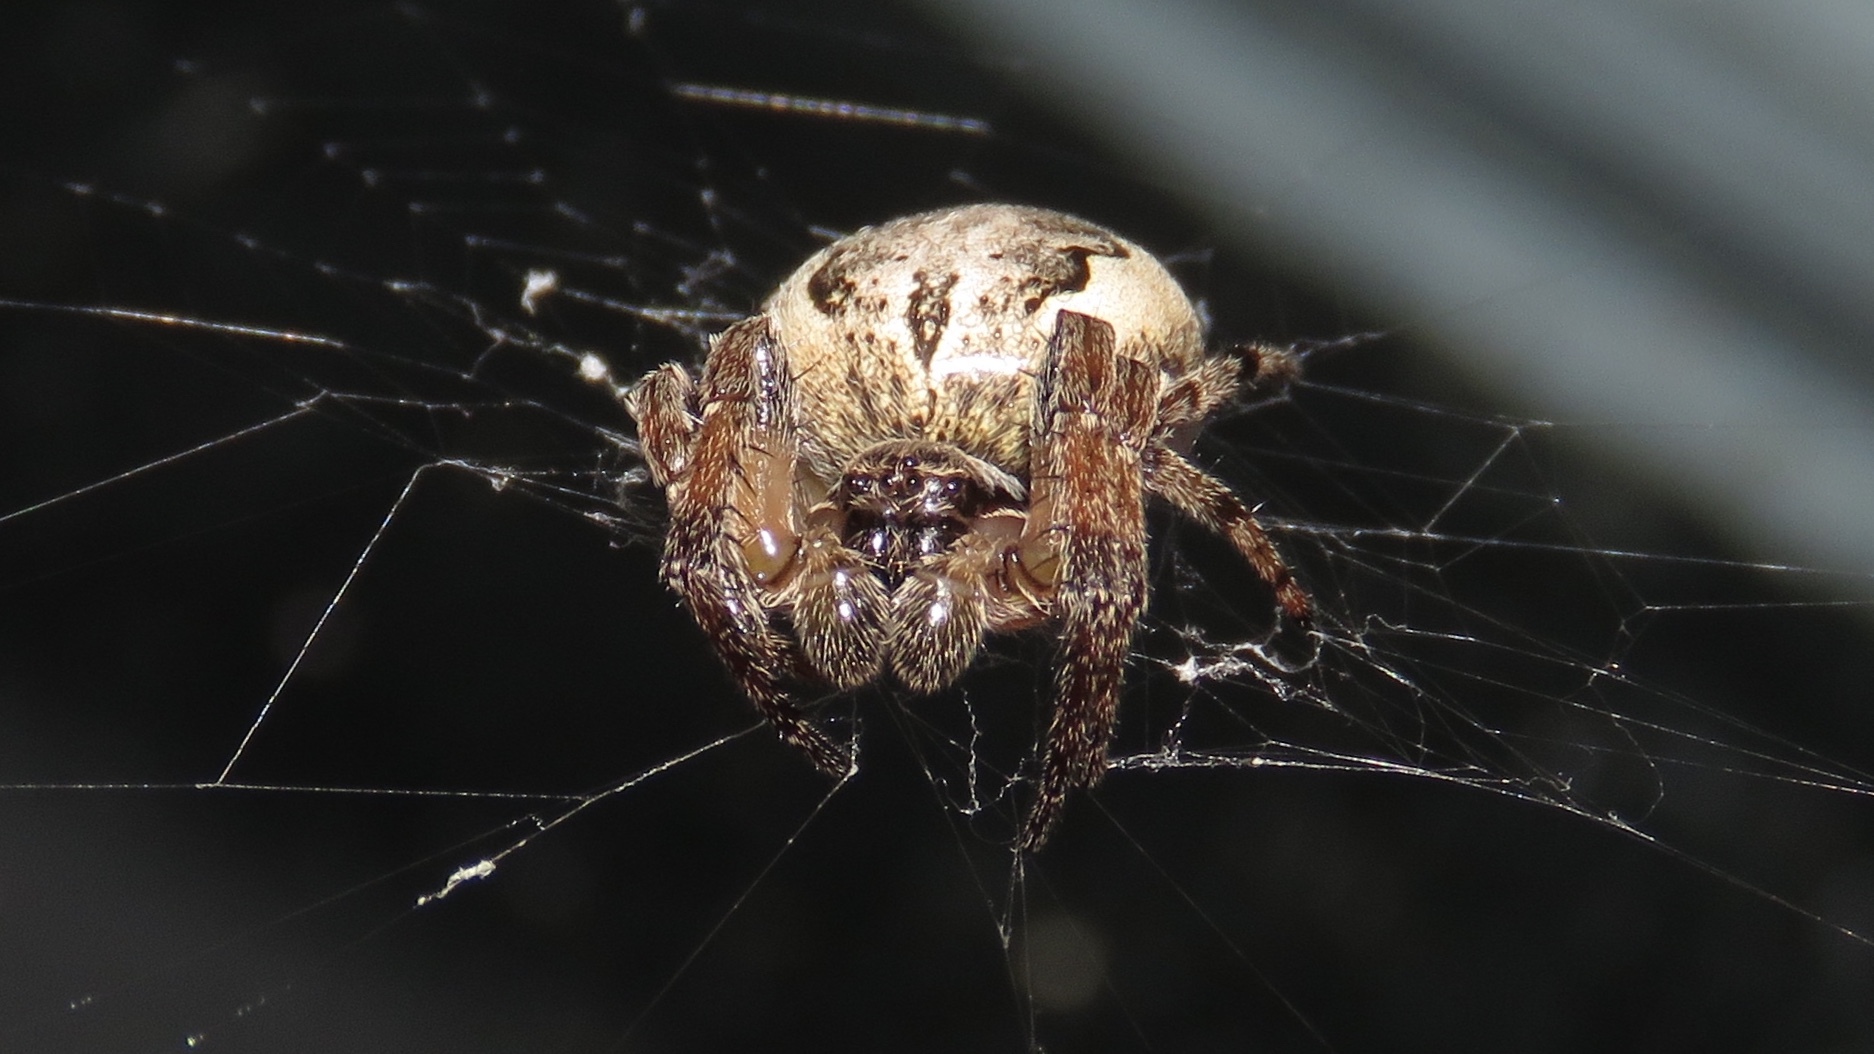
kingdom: Animalia
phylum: Arthropoda
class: Arachnida
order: Araneae
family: Araneidae
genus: Larinioides
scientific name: Larinioides cornutus
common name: Furrow orbweaver
